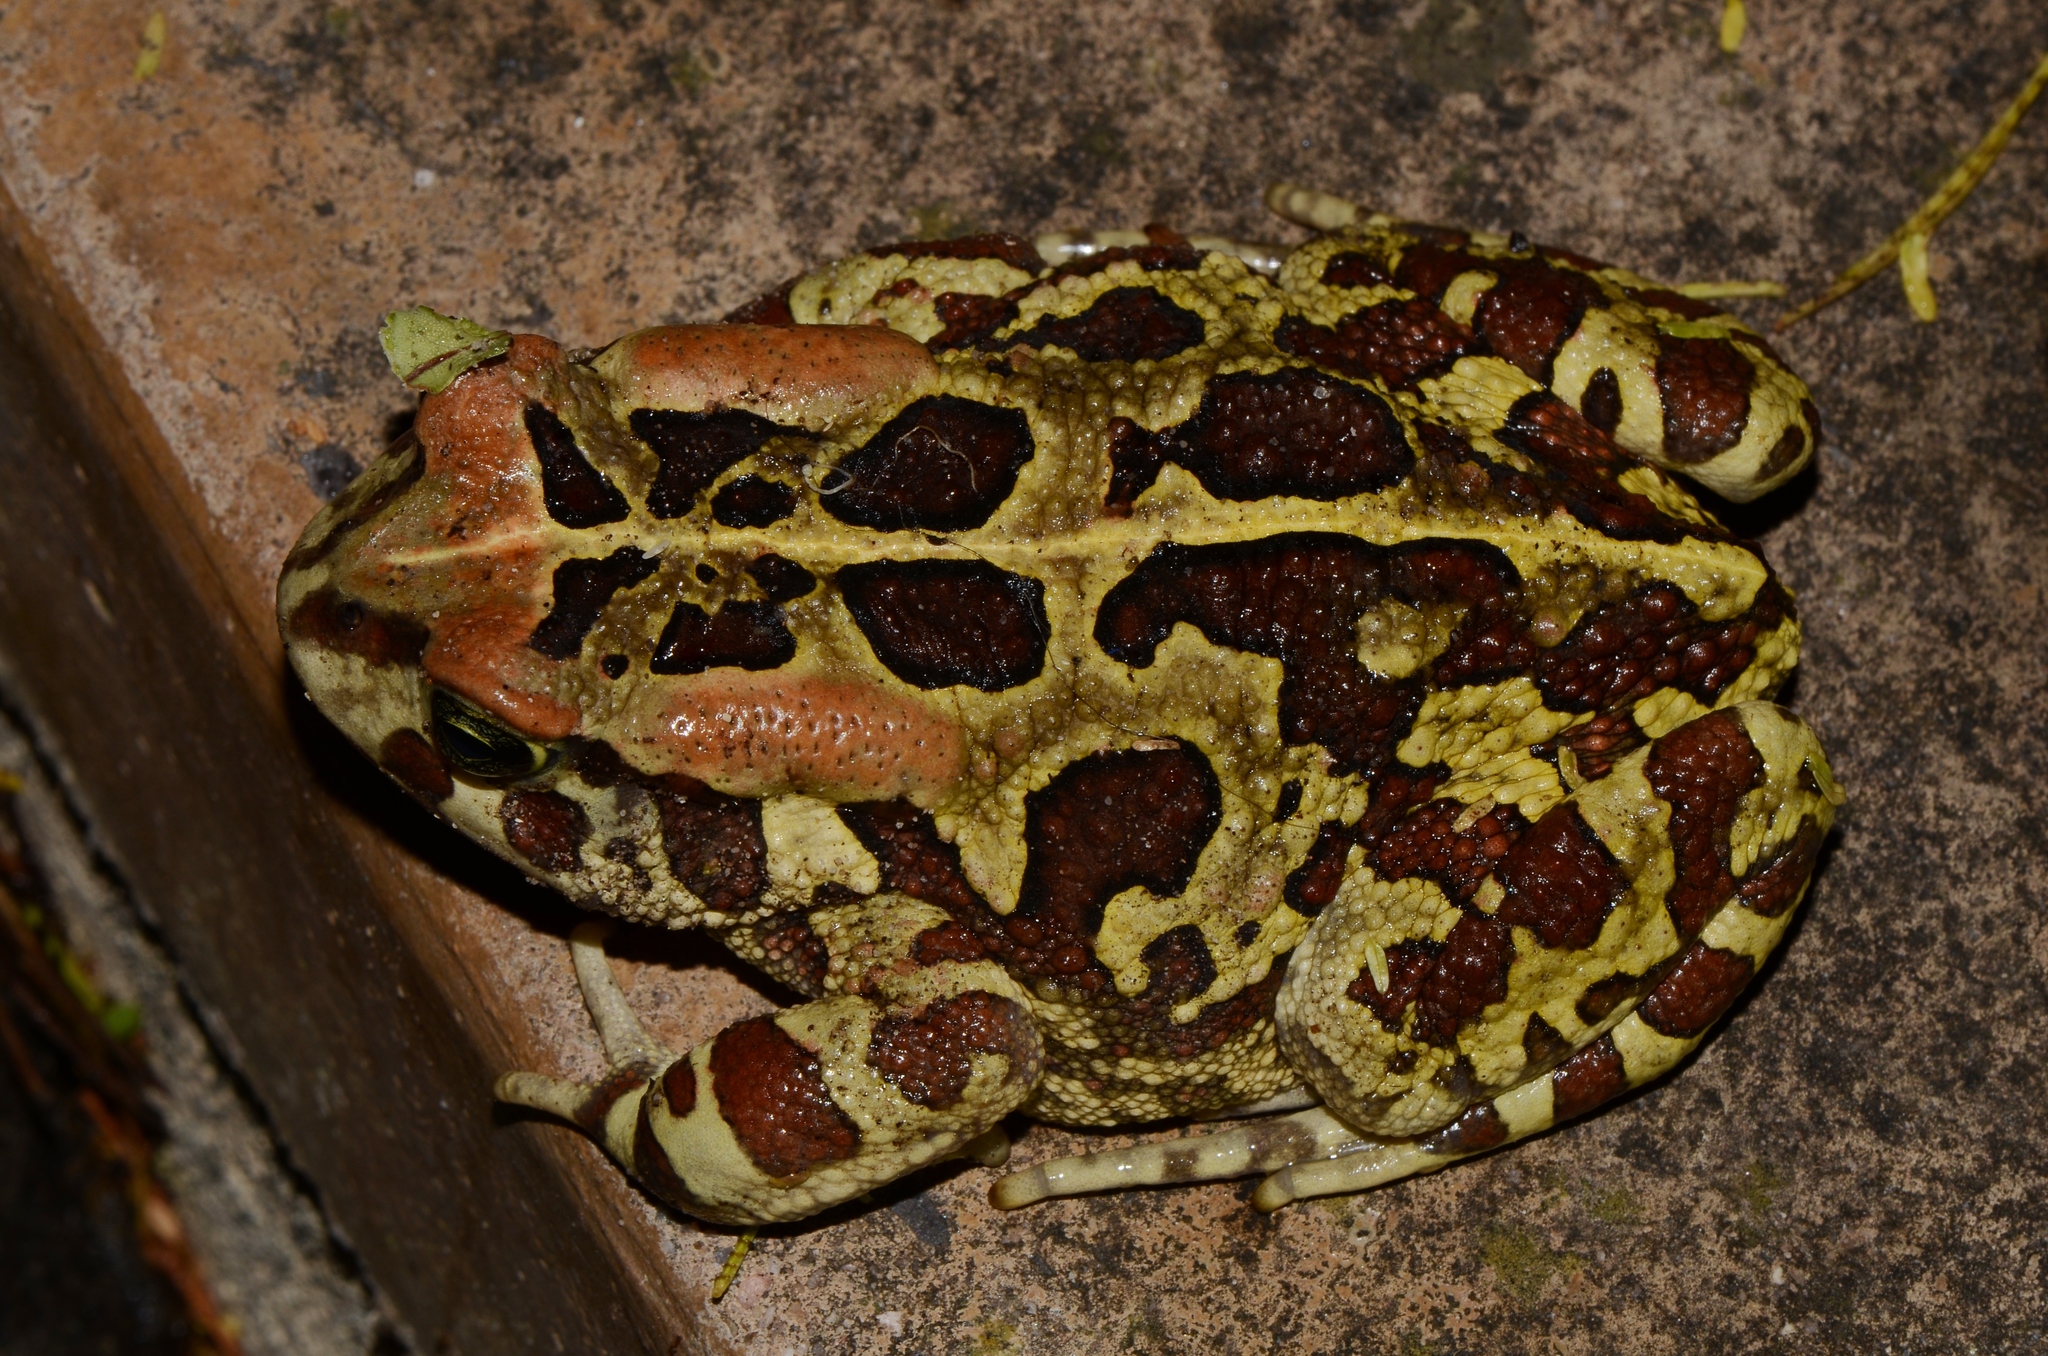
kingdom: Animalia
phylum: Chordata
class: Amphibia
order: Anura
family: Bufonidae
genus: Sclerophrys
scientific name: Sclerophrys pantherina
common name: Panther toad
